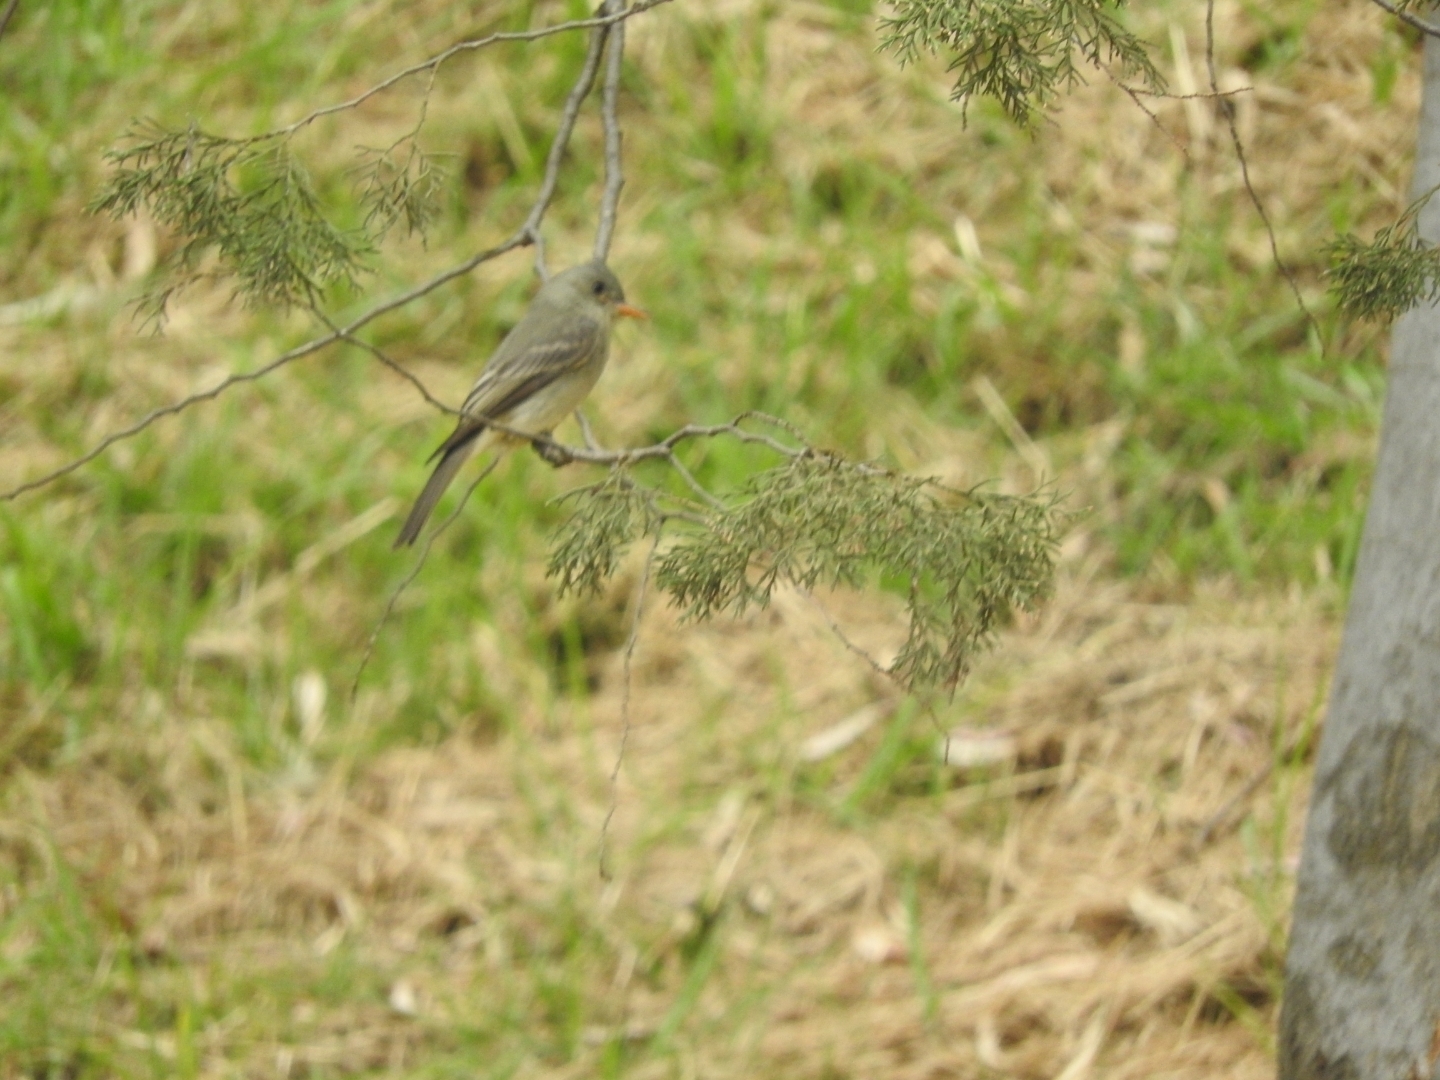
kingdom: Animalia
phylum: Chordata
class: Aves
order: Passeriformes
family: Tyrannidae
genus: Contopus
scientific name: Contopus pertinax
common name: Greater pewee
